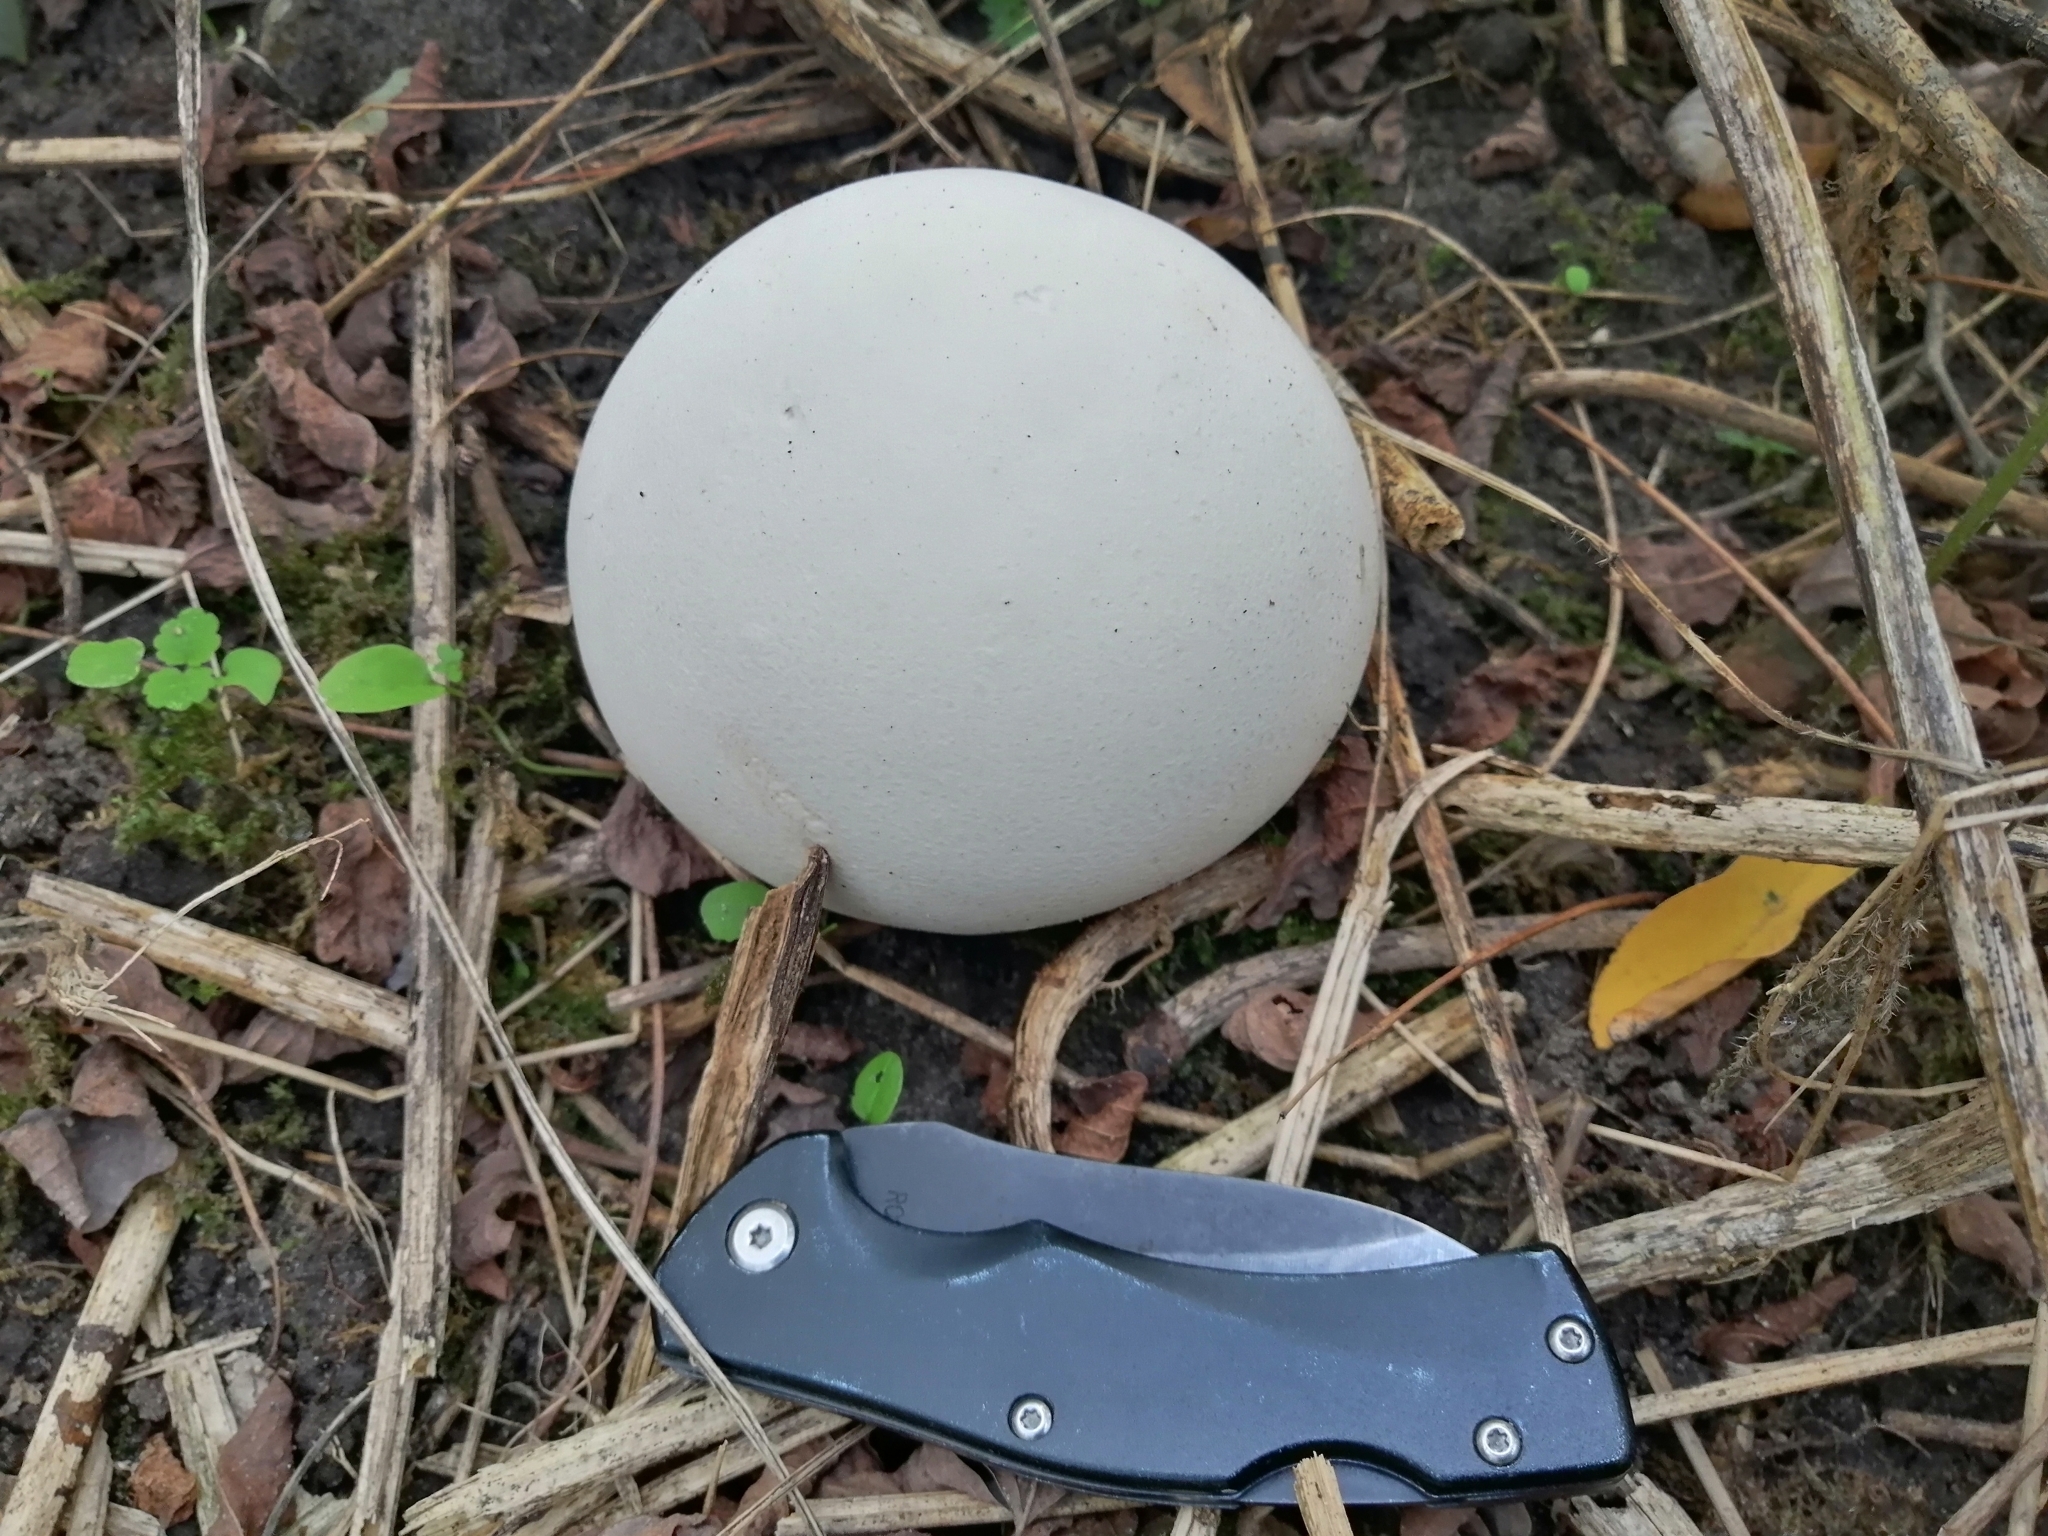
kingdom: Fungi
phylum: Basidiomycota
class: Agaricomycetes
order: Agaricales
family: Lycoperdaceae
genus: Calvatia
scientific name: Calvatia gigantea
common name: Giant puffball
